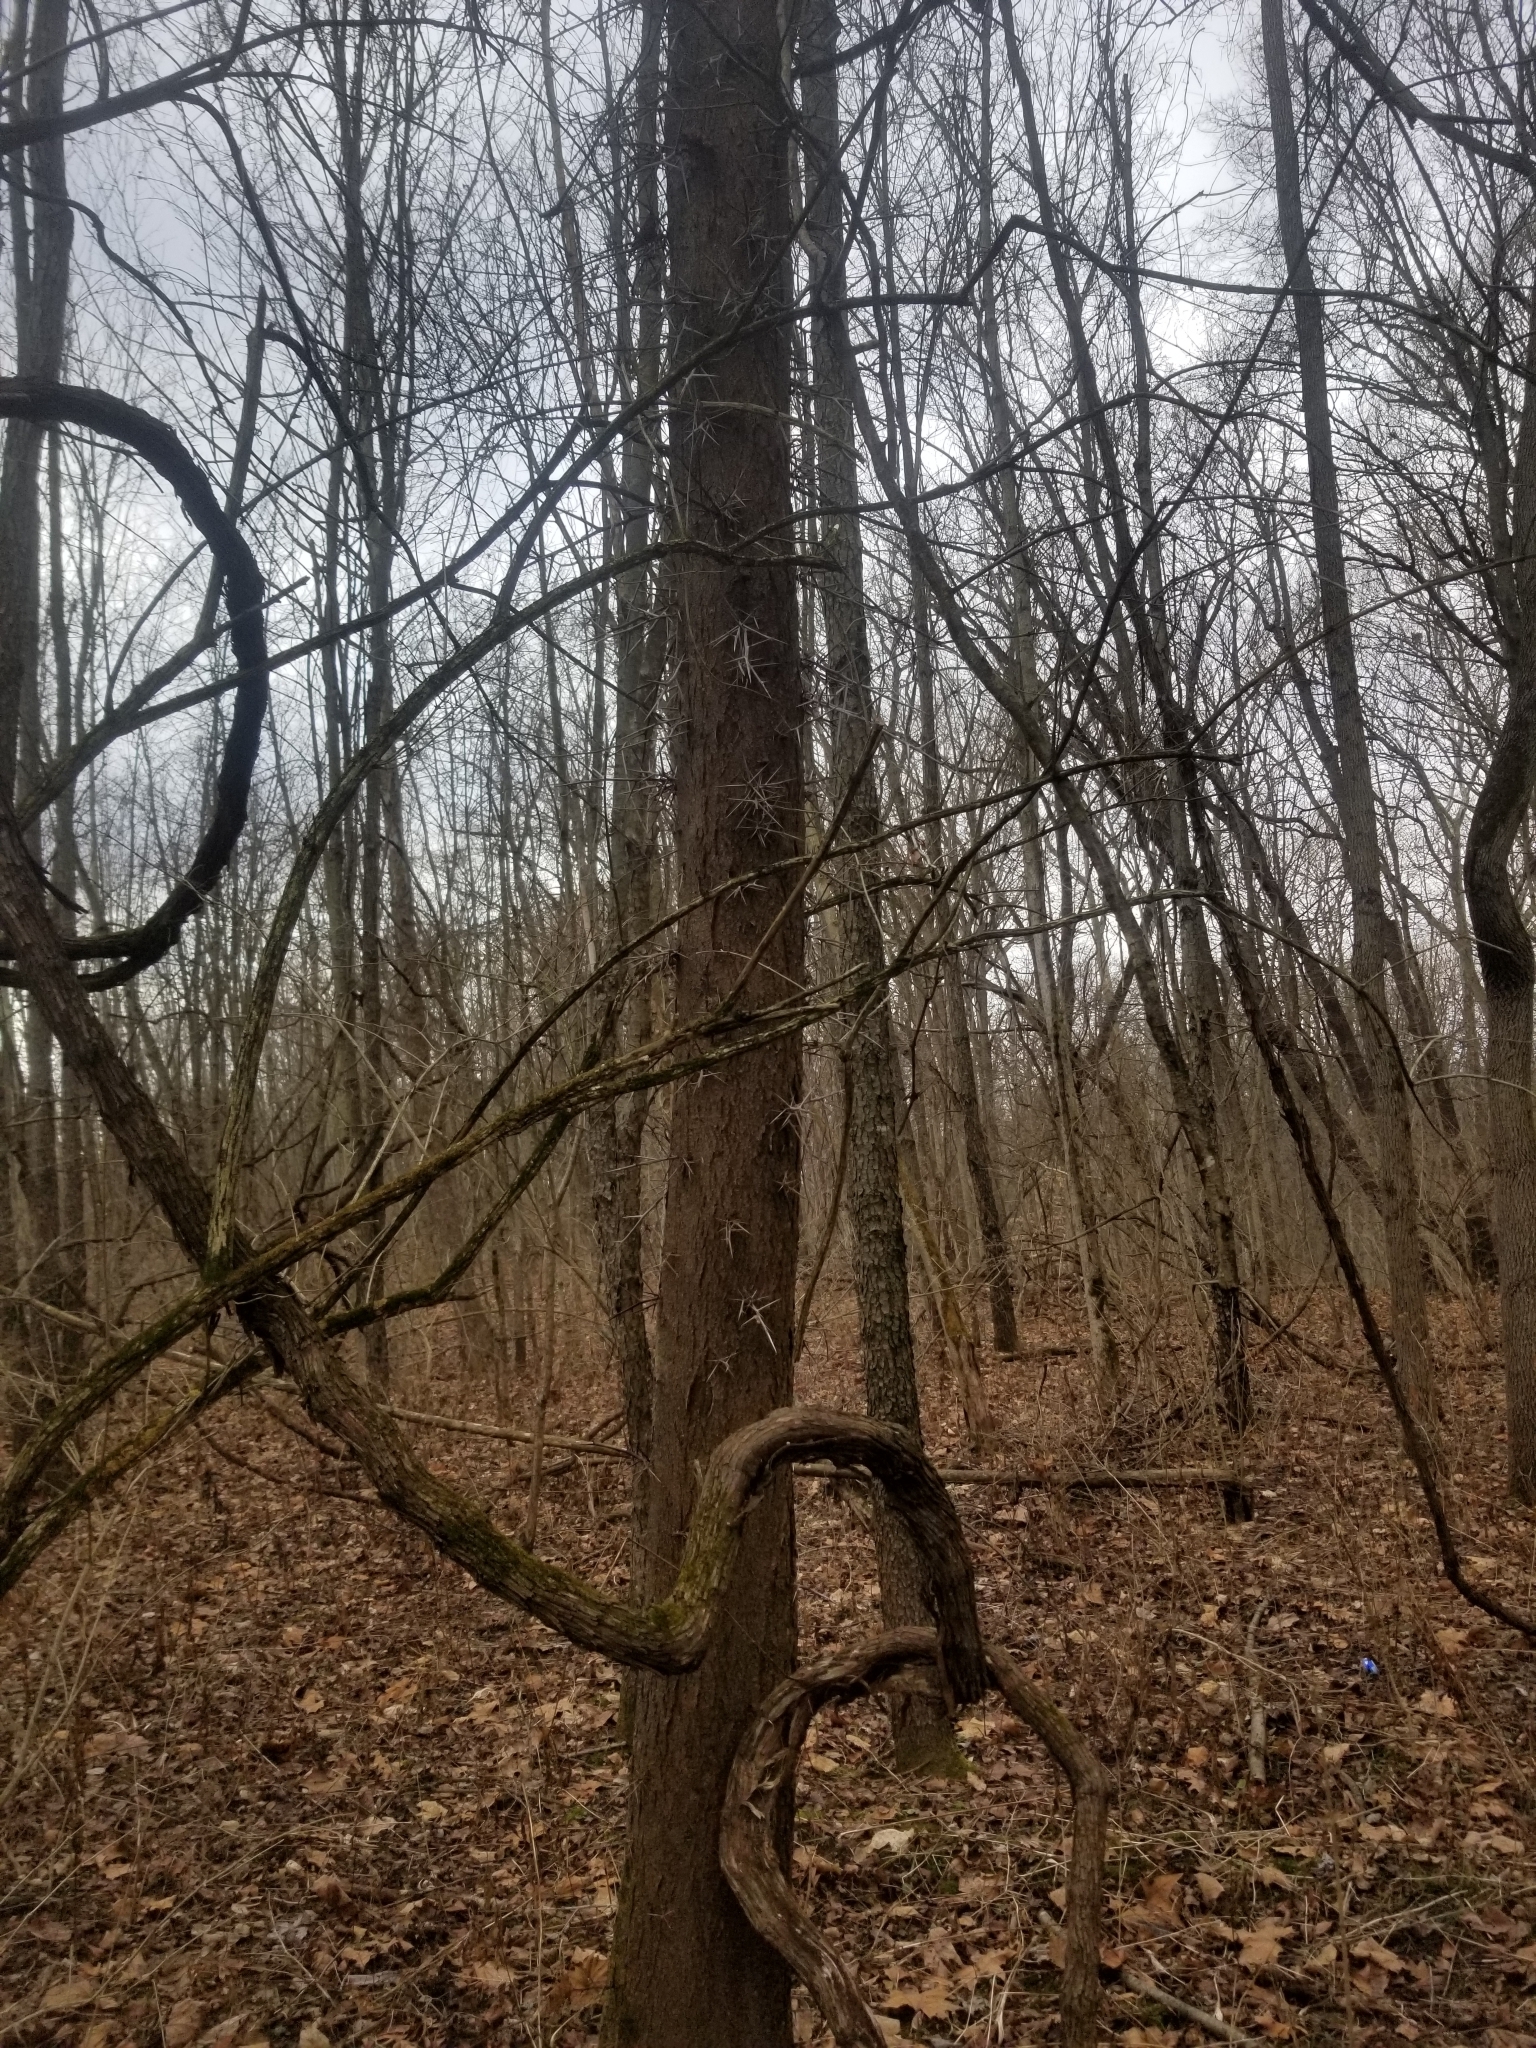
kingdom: Plantae
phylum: Tracheophyta
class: Magnoliopsida
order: Fabales
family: Fabaceae
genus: Gleditsia
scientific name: Gleditsia triacanthos
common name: Common honeylocust
